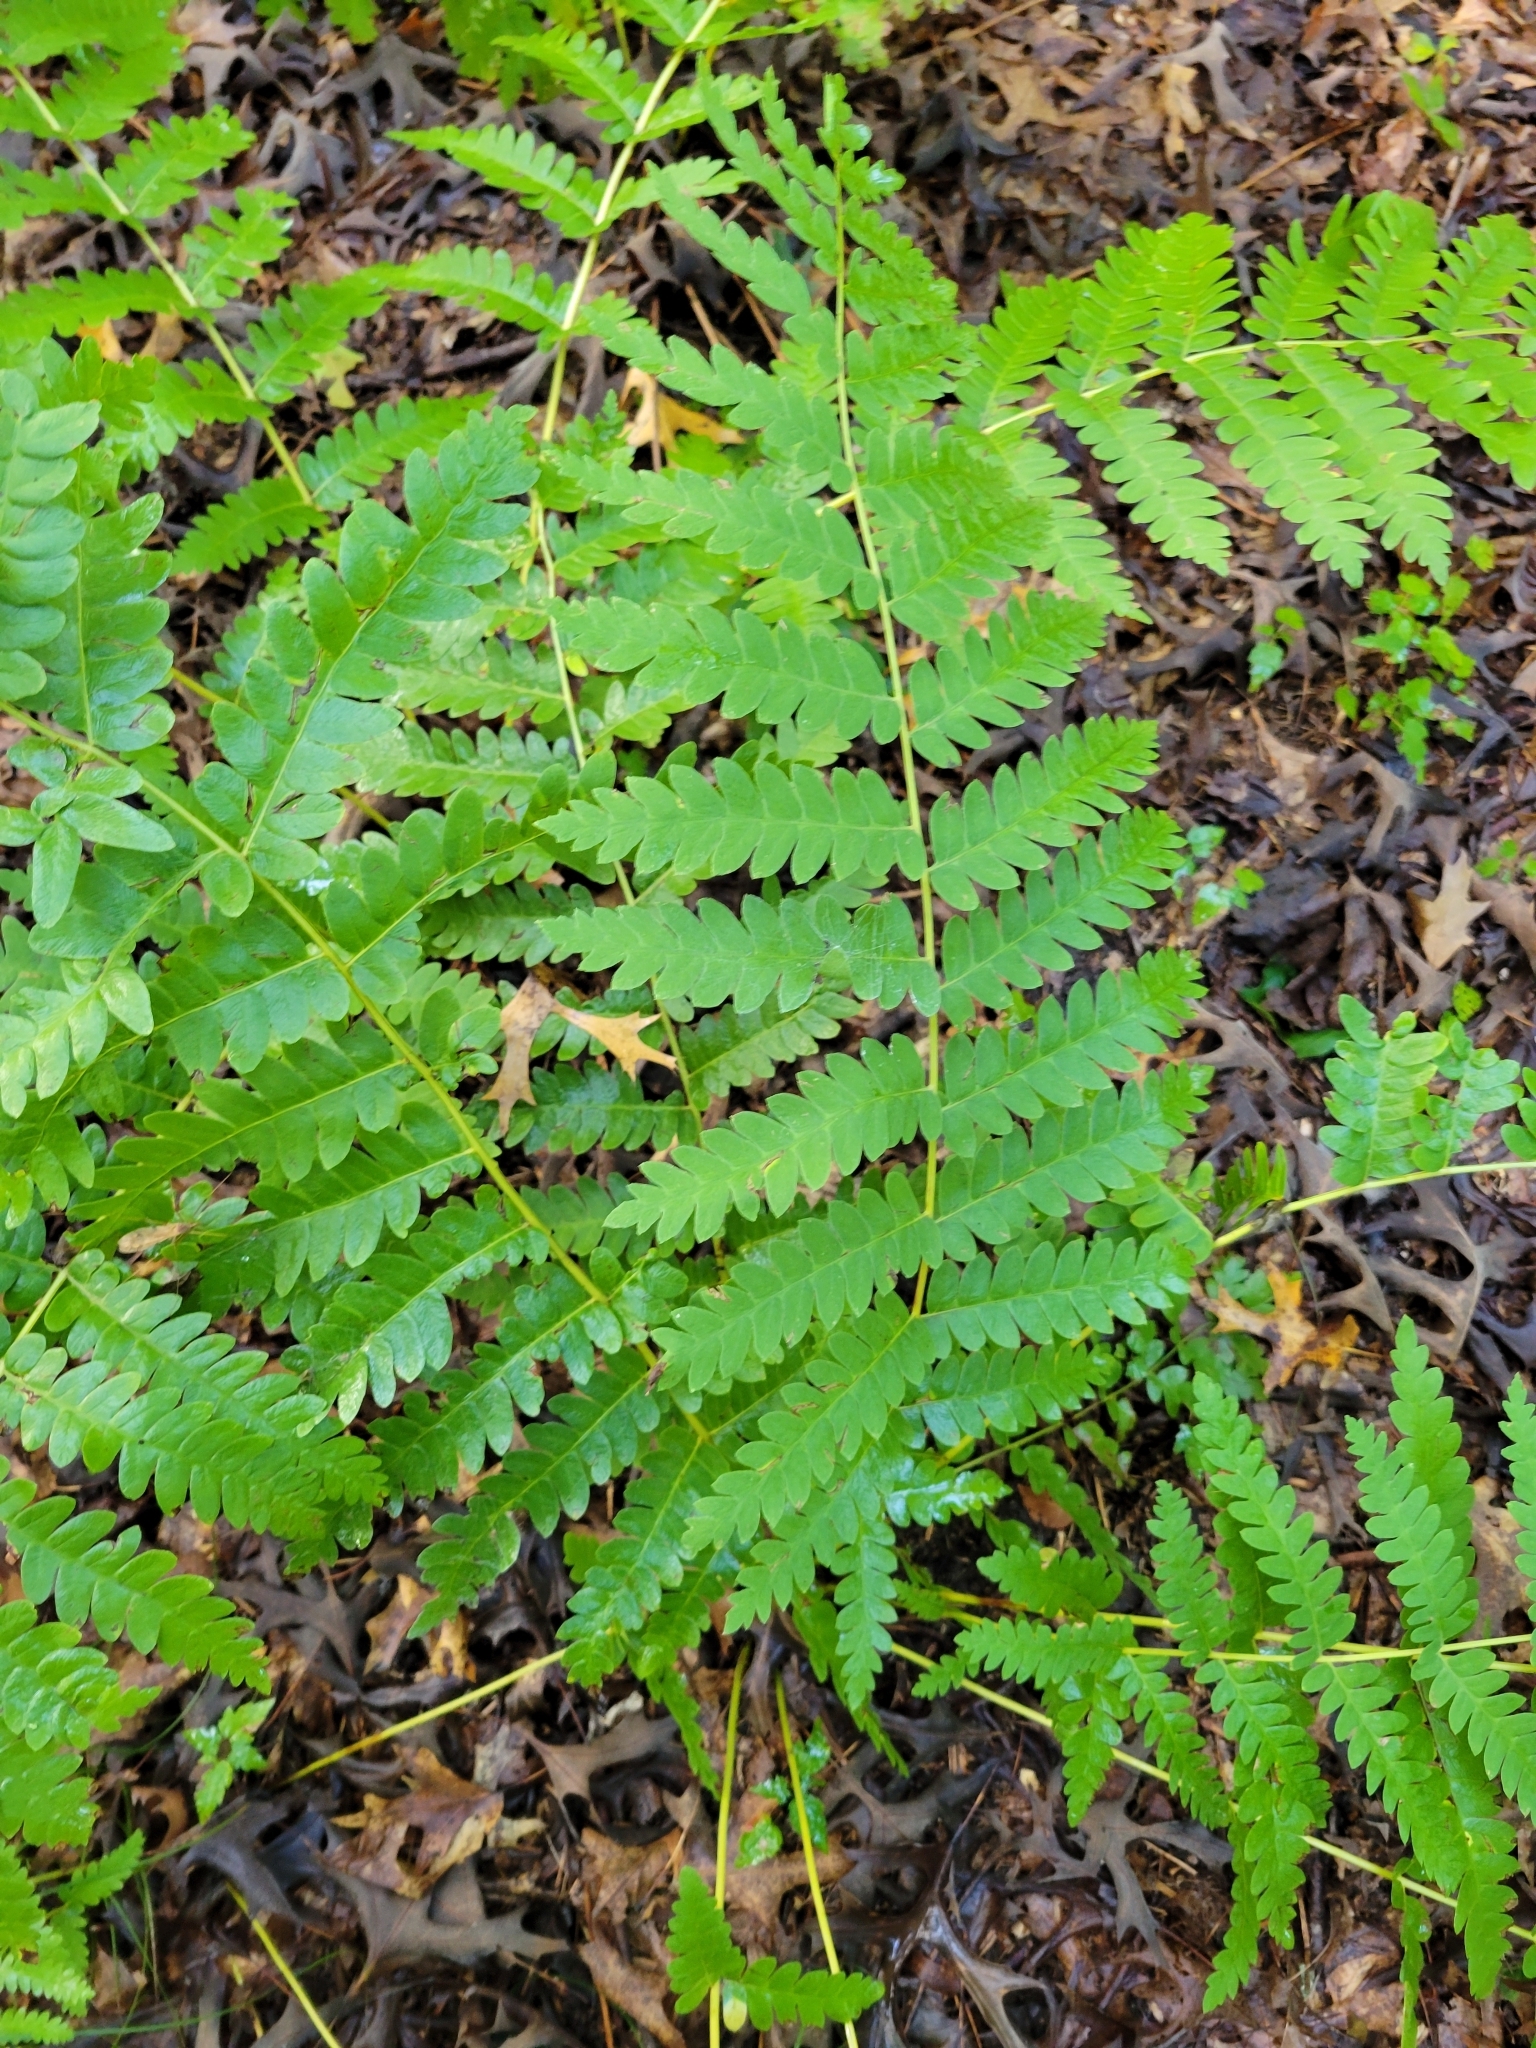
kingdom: Plantae
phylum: Tracheophyta
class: Polypodiopsida
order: Osmundales
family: Osmundaceae
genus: Claytosmunda
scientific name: Claytosmunda claytoniana
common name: Clayton's fern
